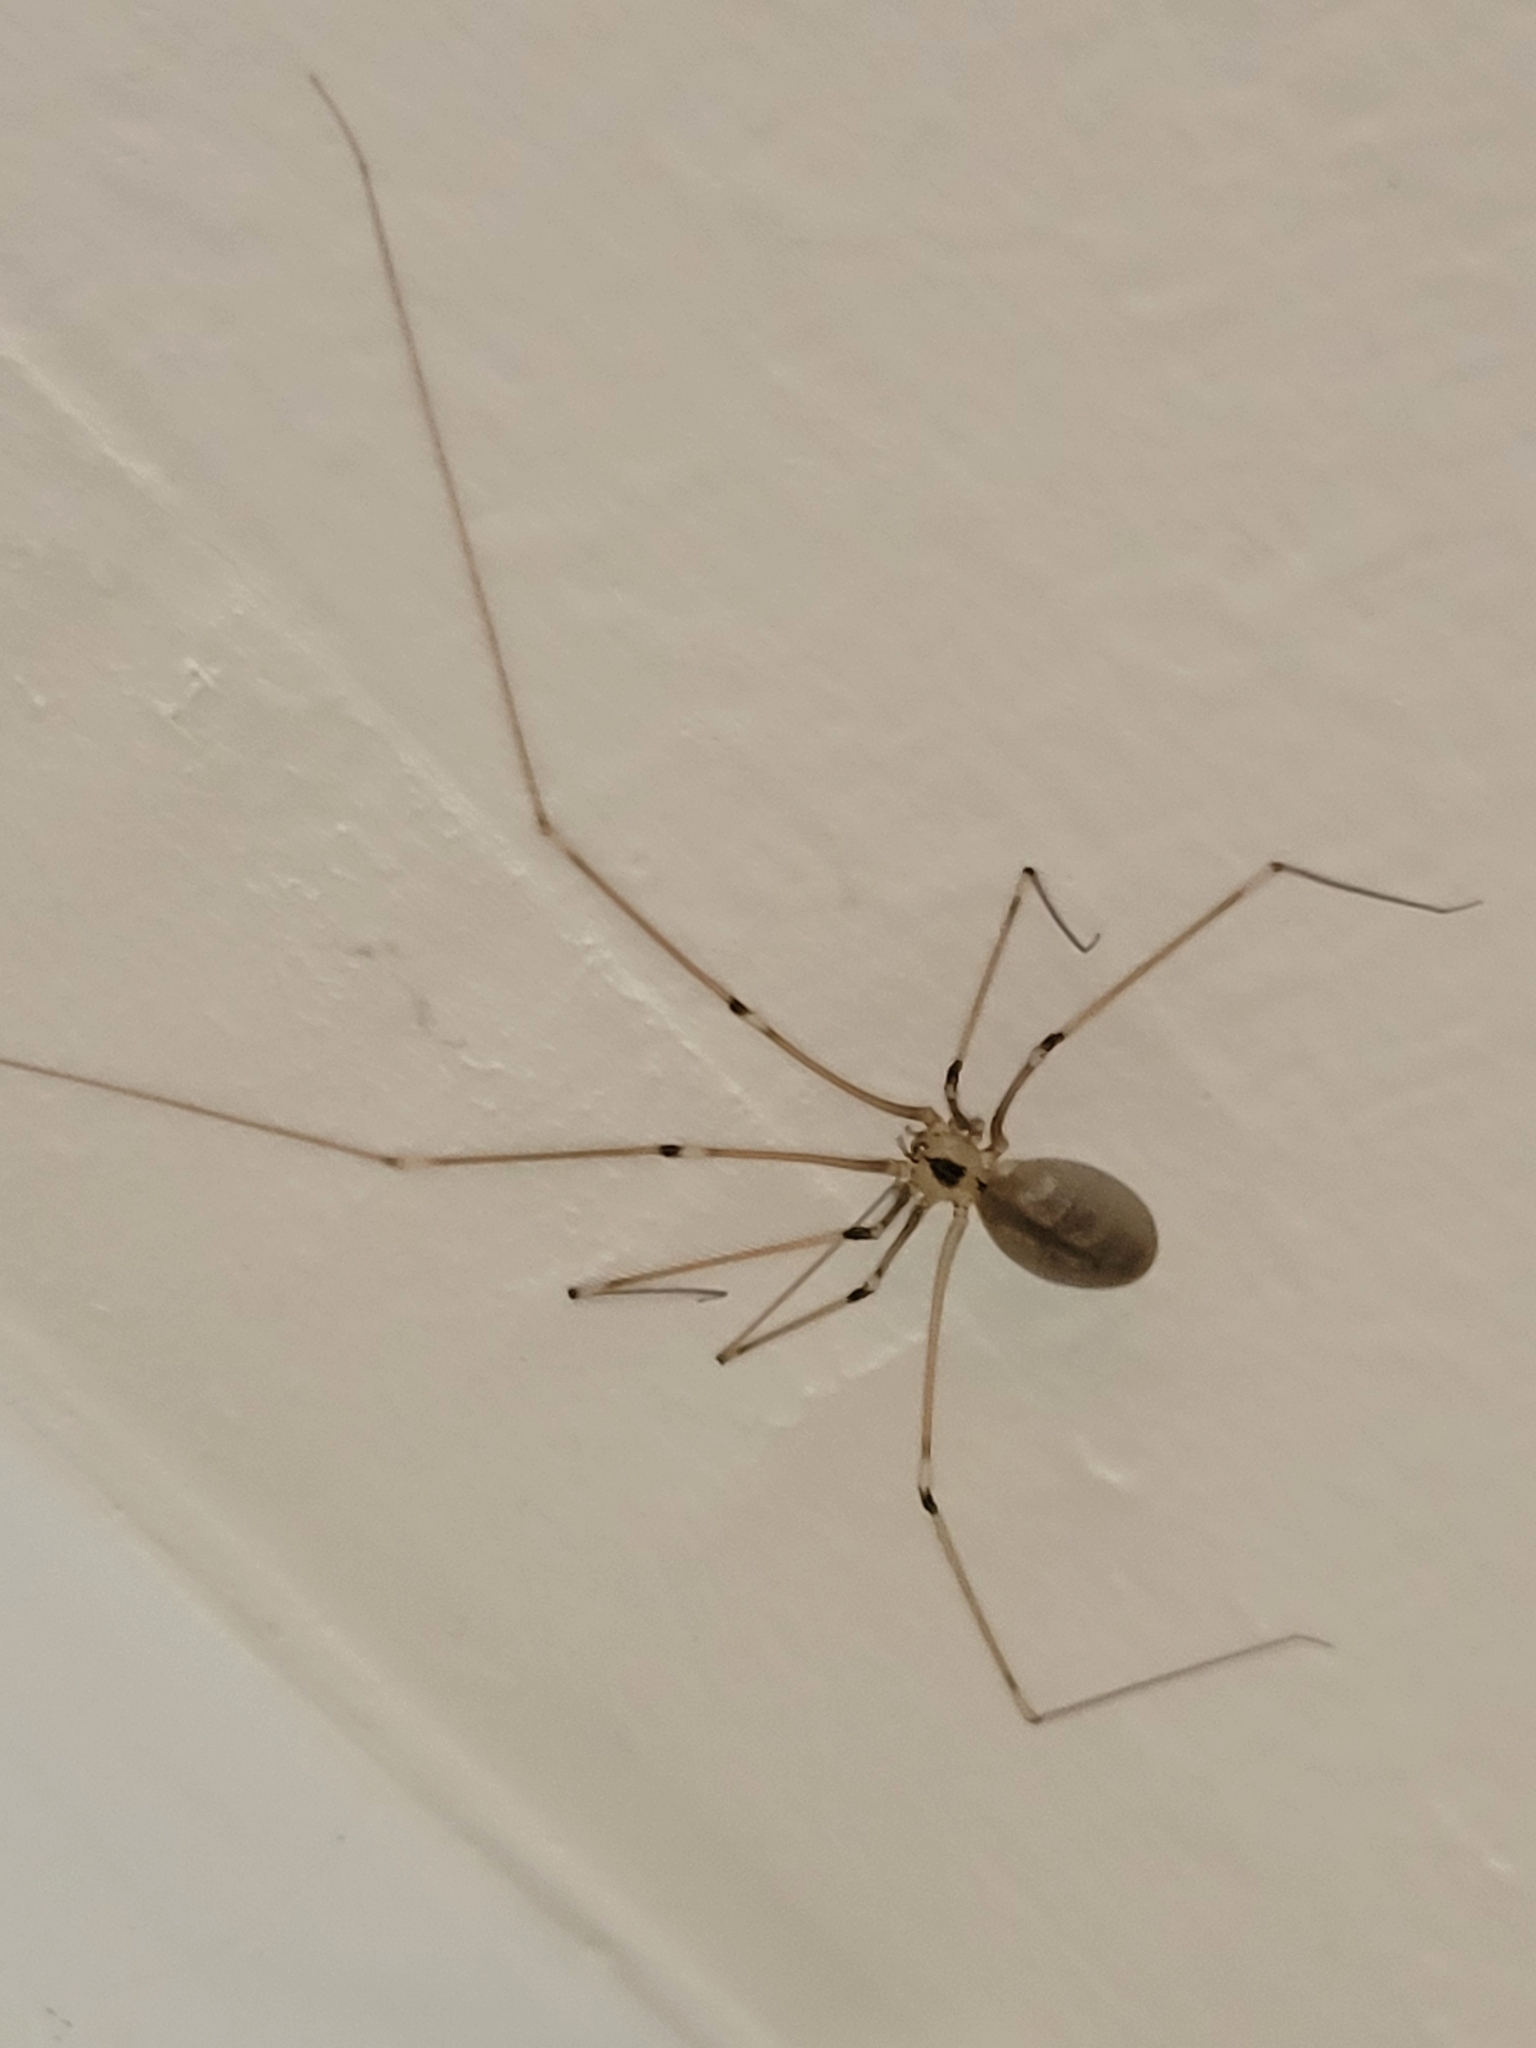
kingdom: Animalia
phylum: Arthropoda
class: Arachnida
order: Araneae
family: Pholcidae
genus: Pholcus
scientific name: Pholcus phalangioides
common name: Longbodied cellar spider
